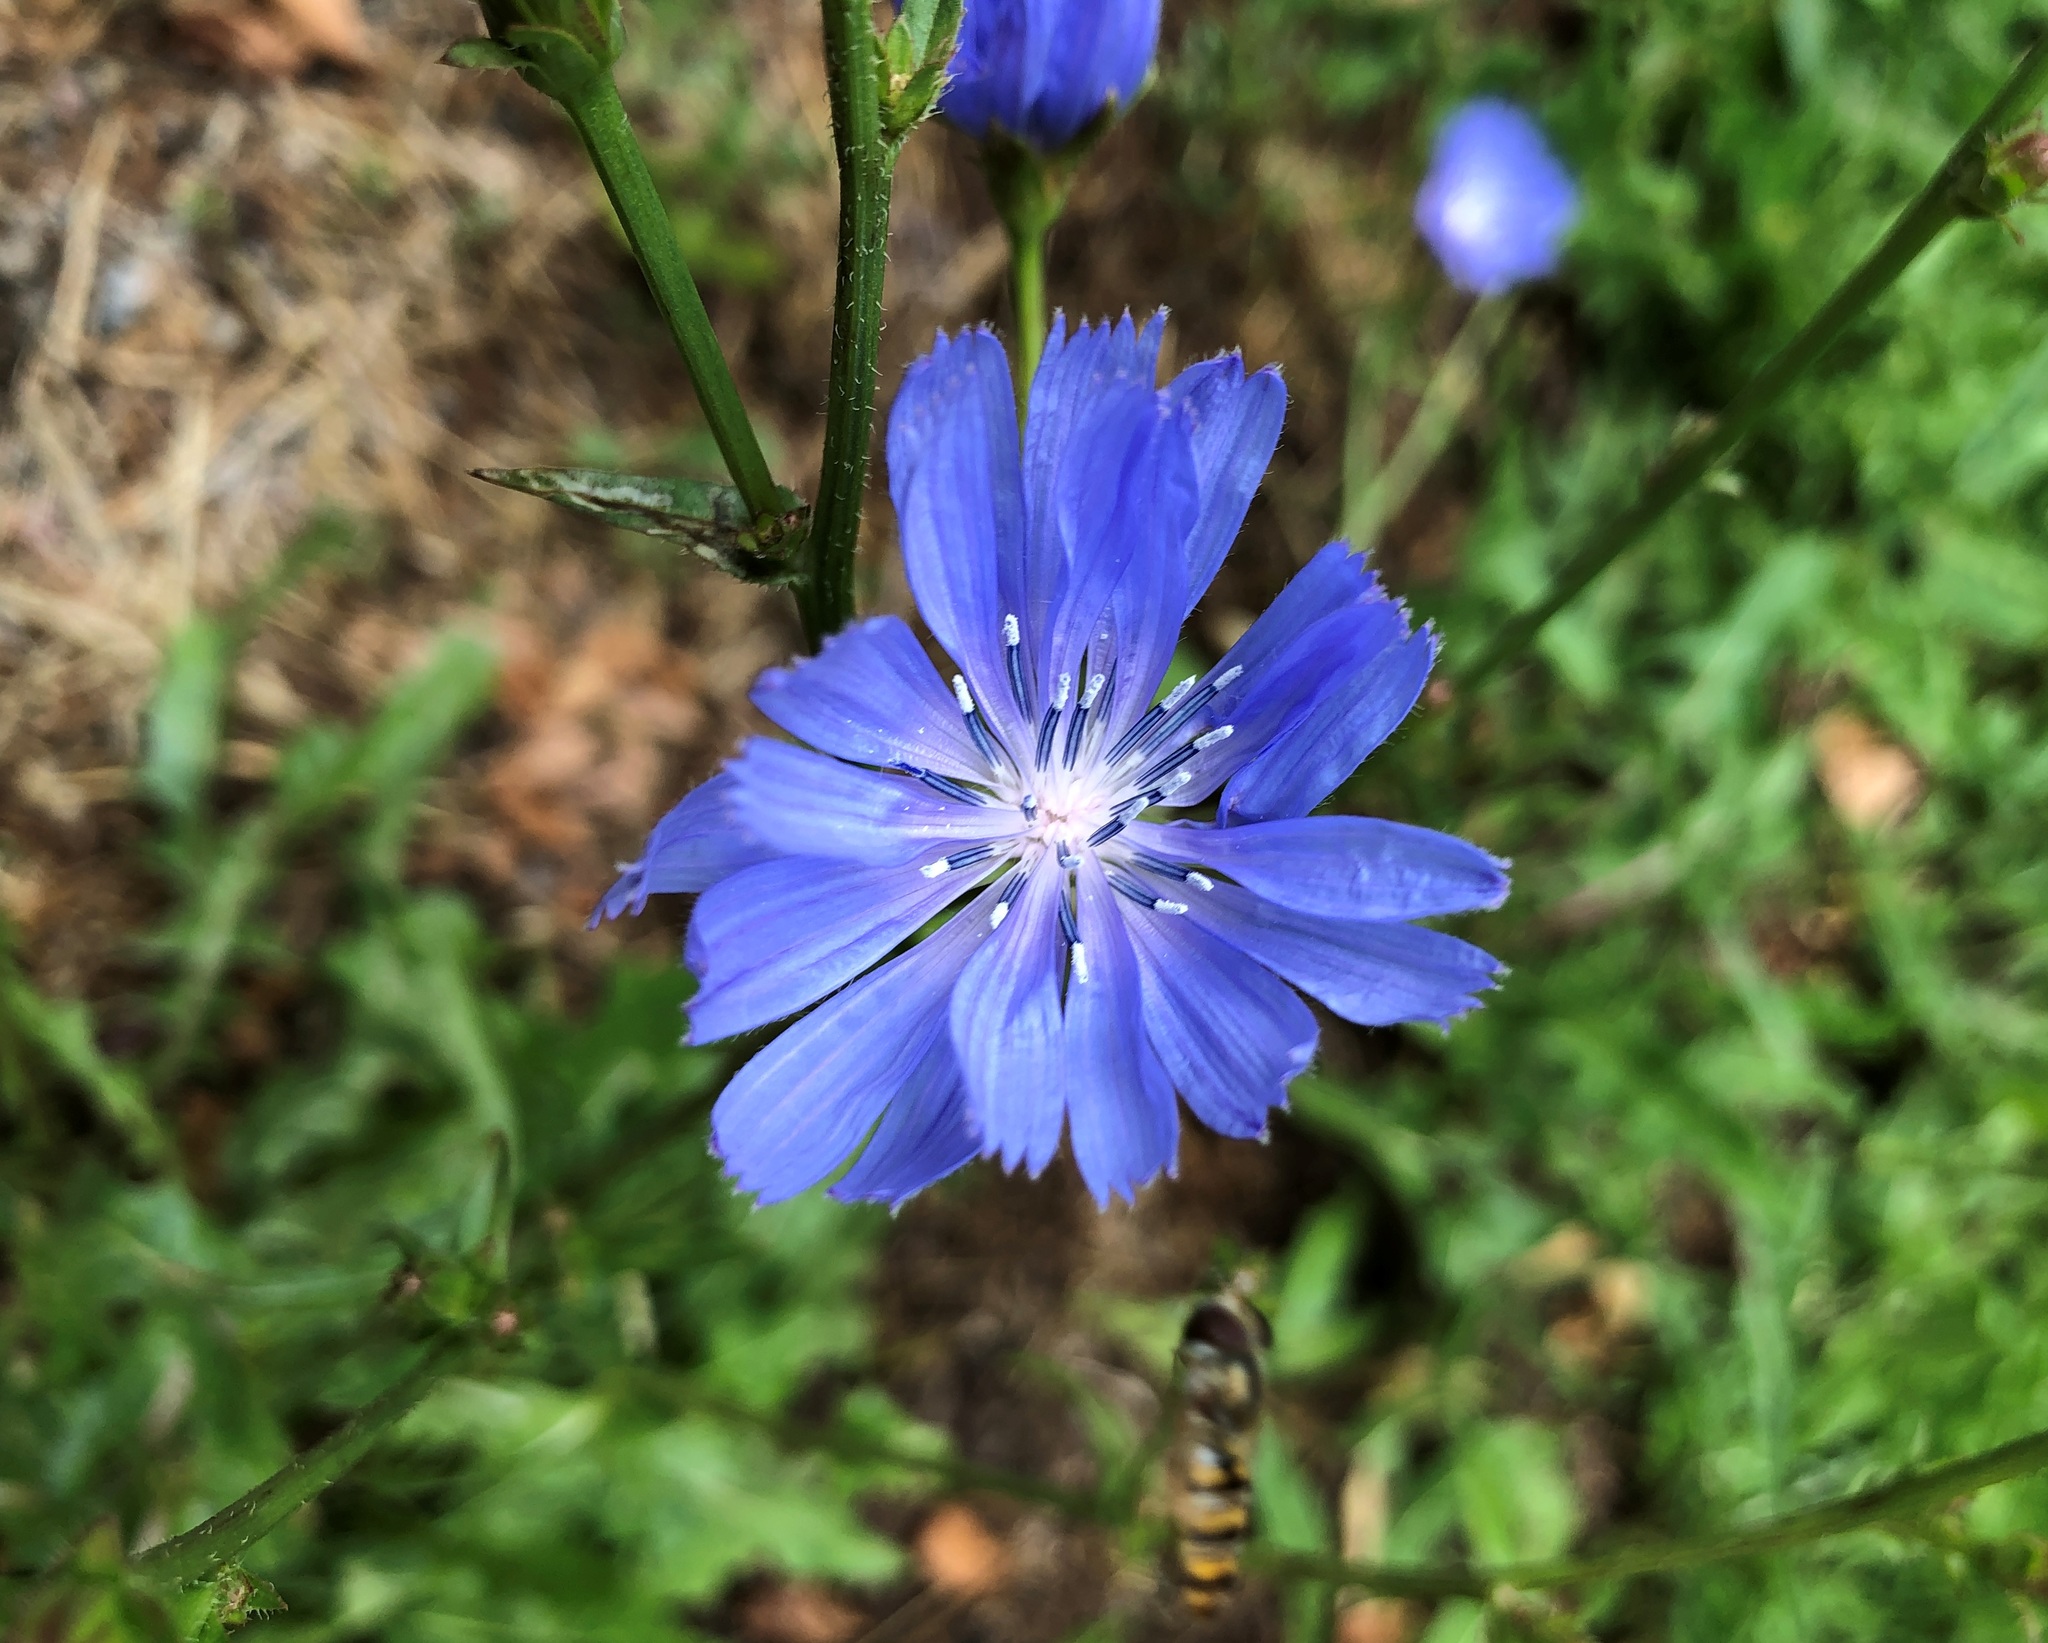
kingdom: Plantae
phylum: Tracheophyta
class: Magnoliopsida
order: Asterales
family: Asteraceae
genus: Cichorium
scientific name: Cichorium intybus
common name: Chicory
